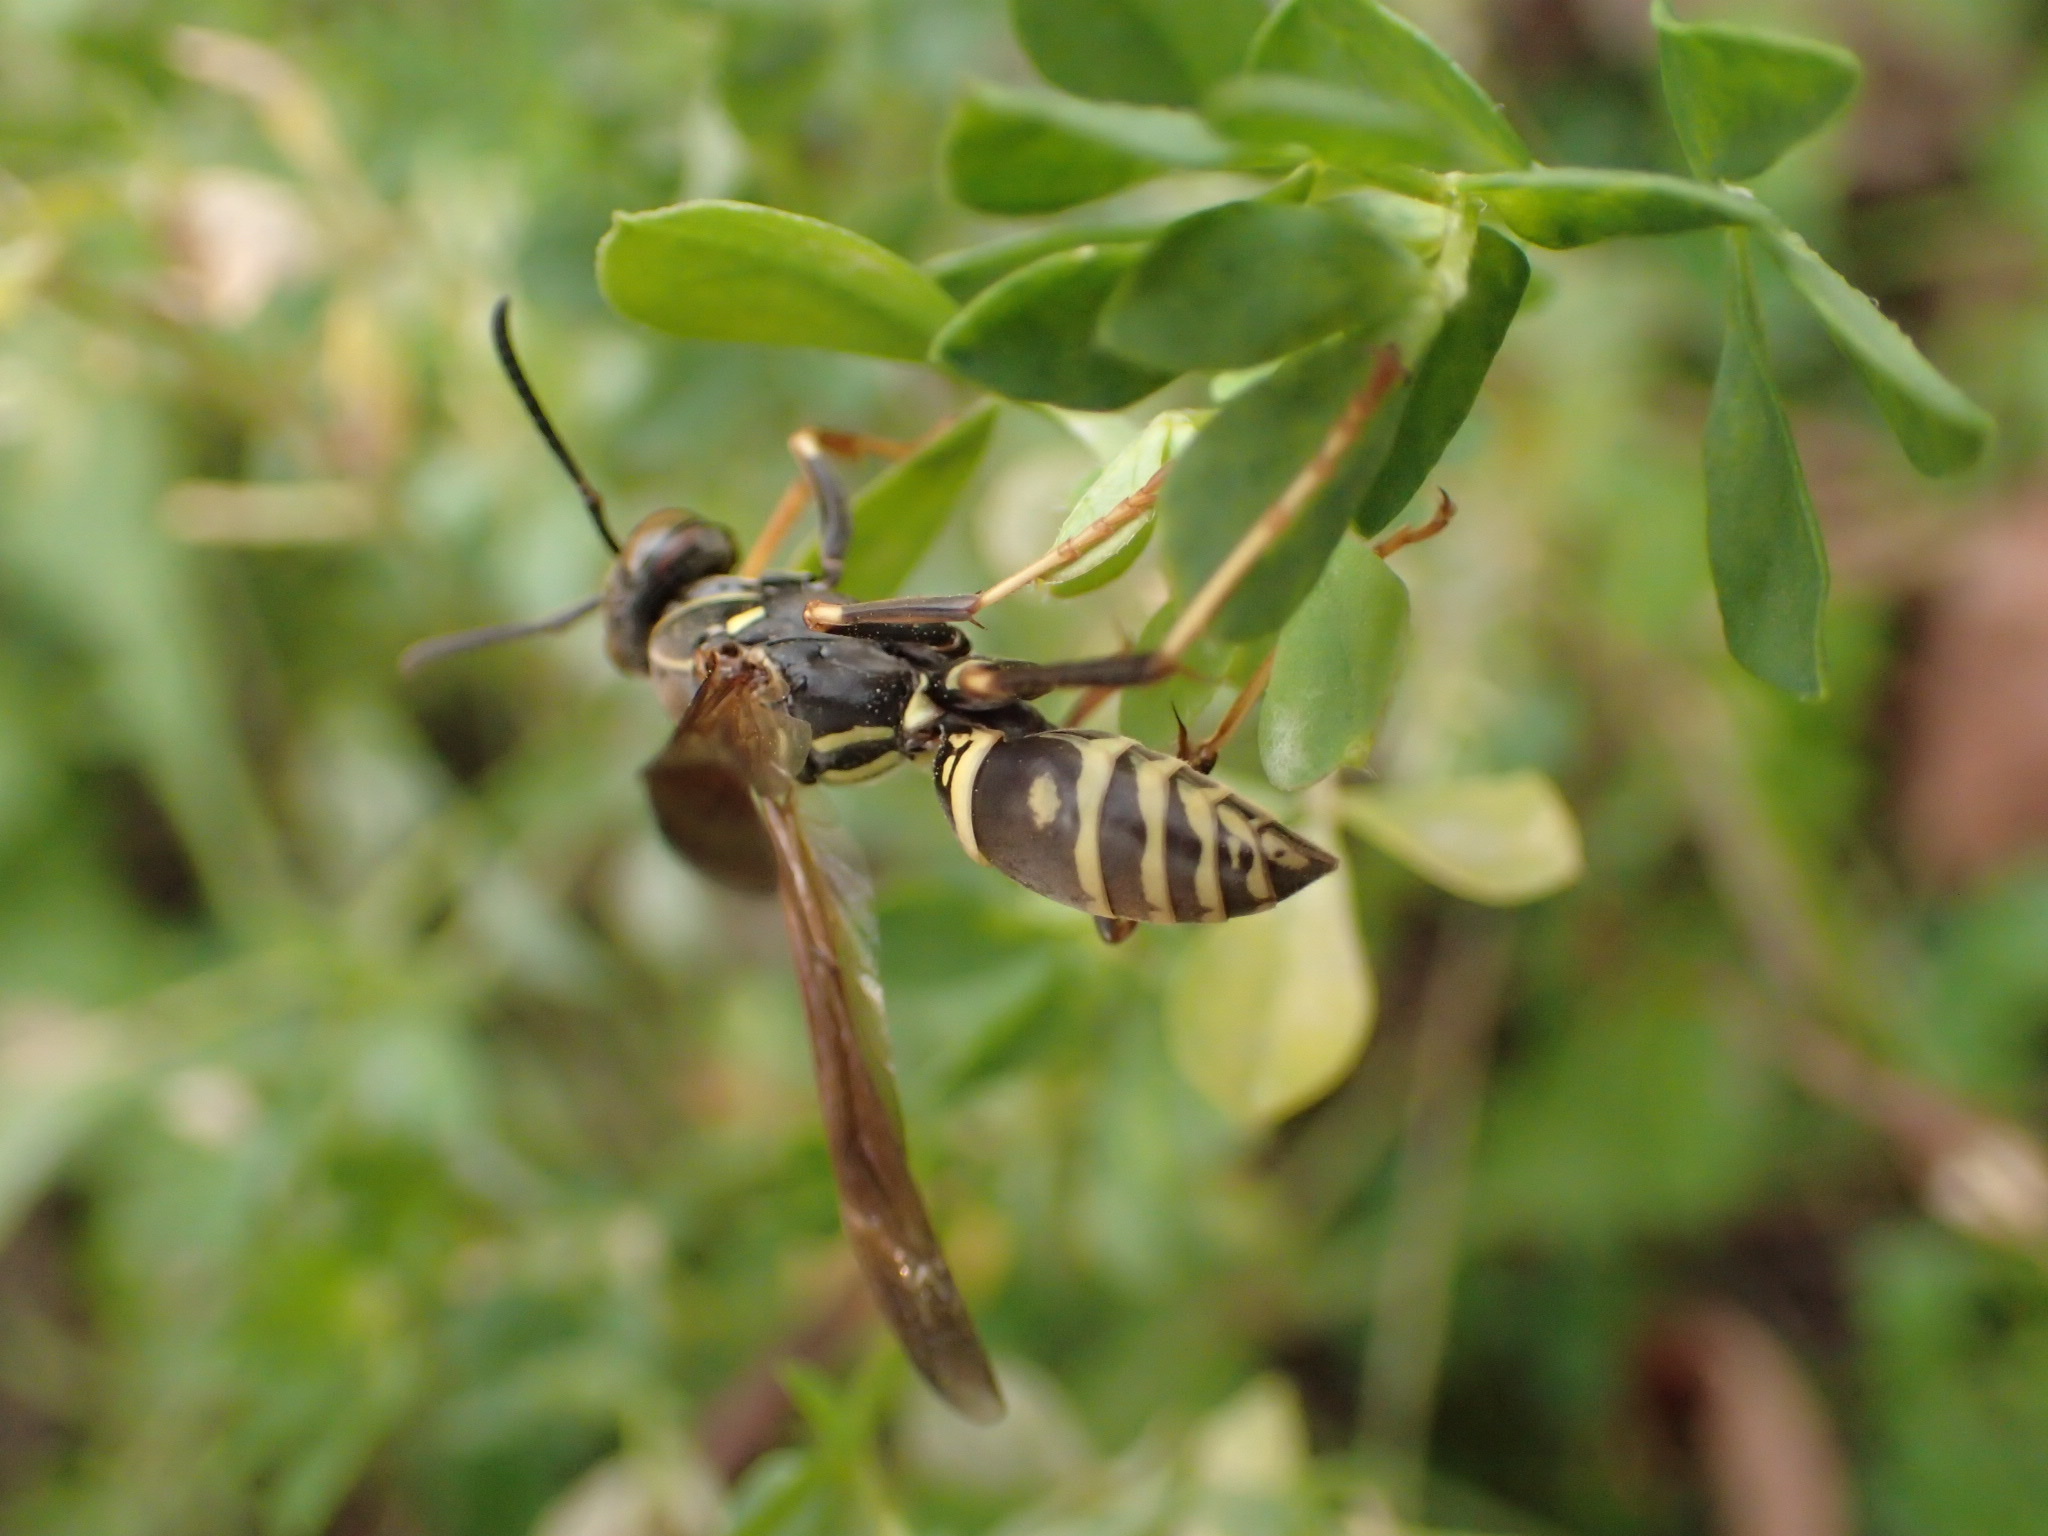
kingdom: Animalia
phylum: Arthropoda
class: Insecta
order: Hymenoptera
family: Eumenidae
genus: Polistes
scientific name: Polistes fuscatus
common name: Dark paper wasp
